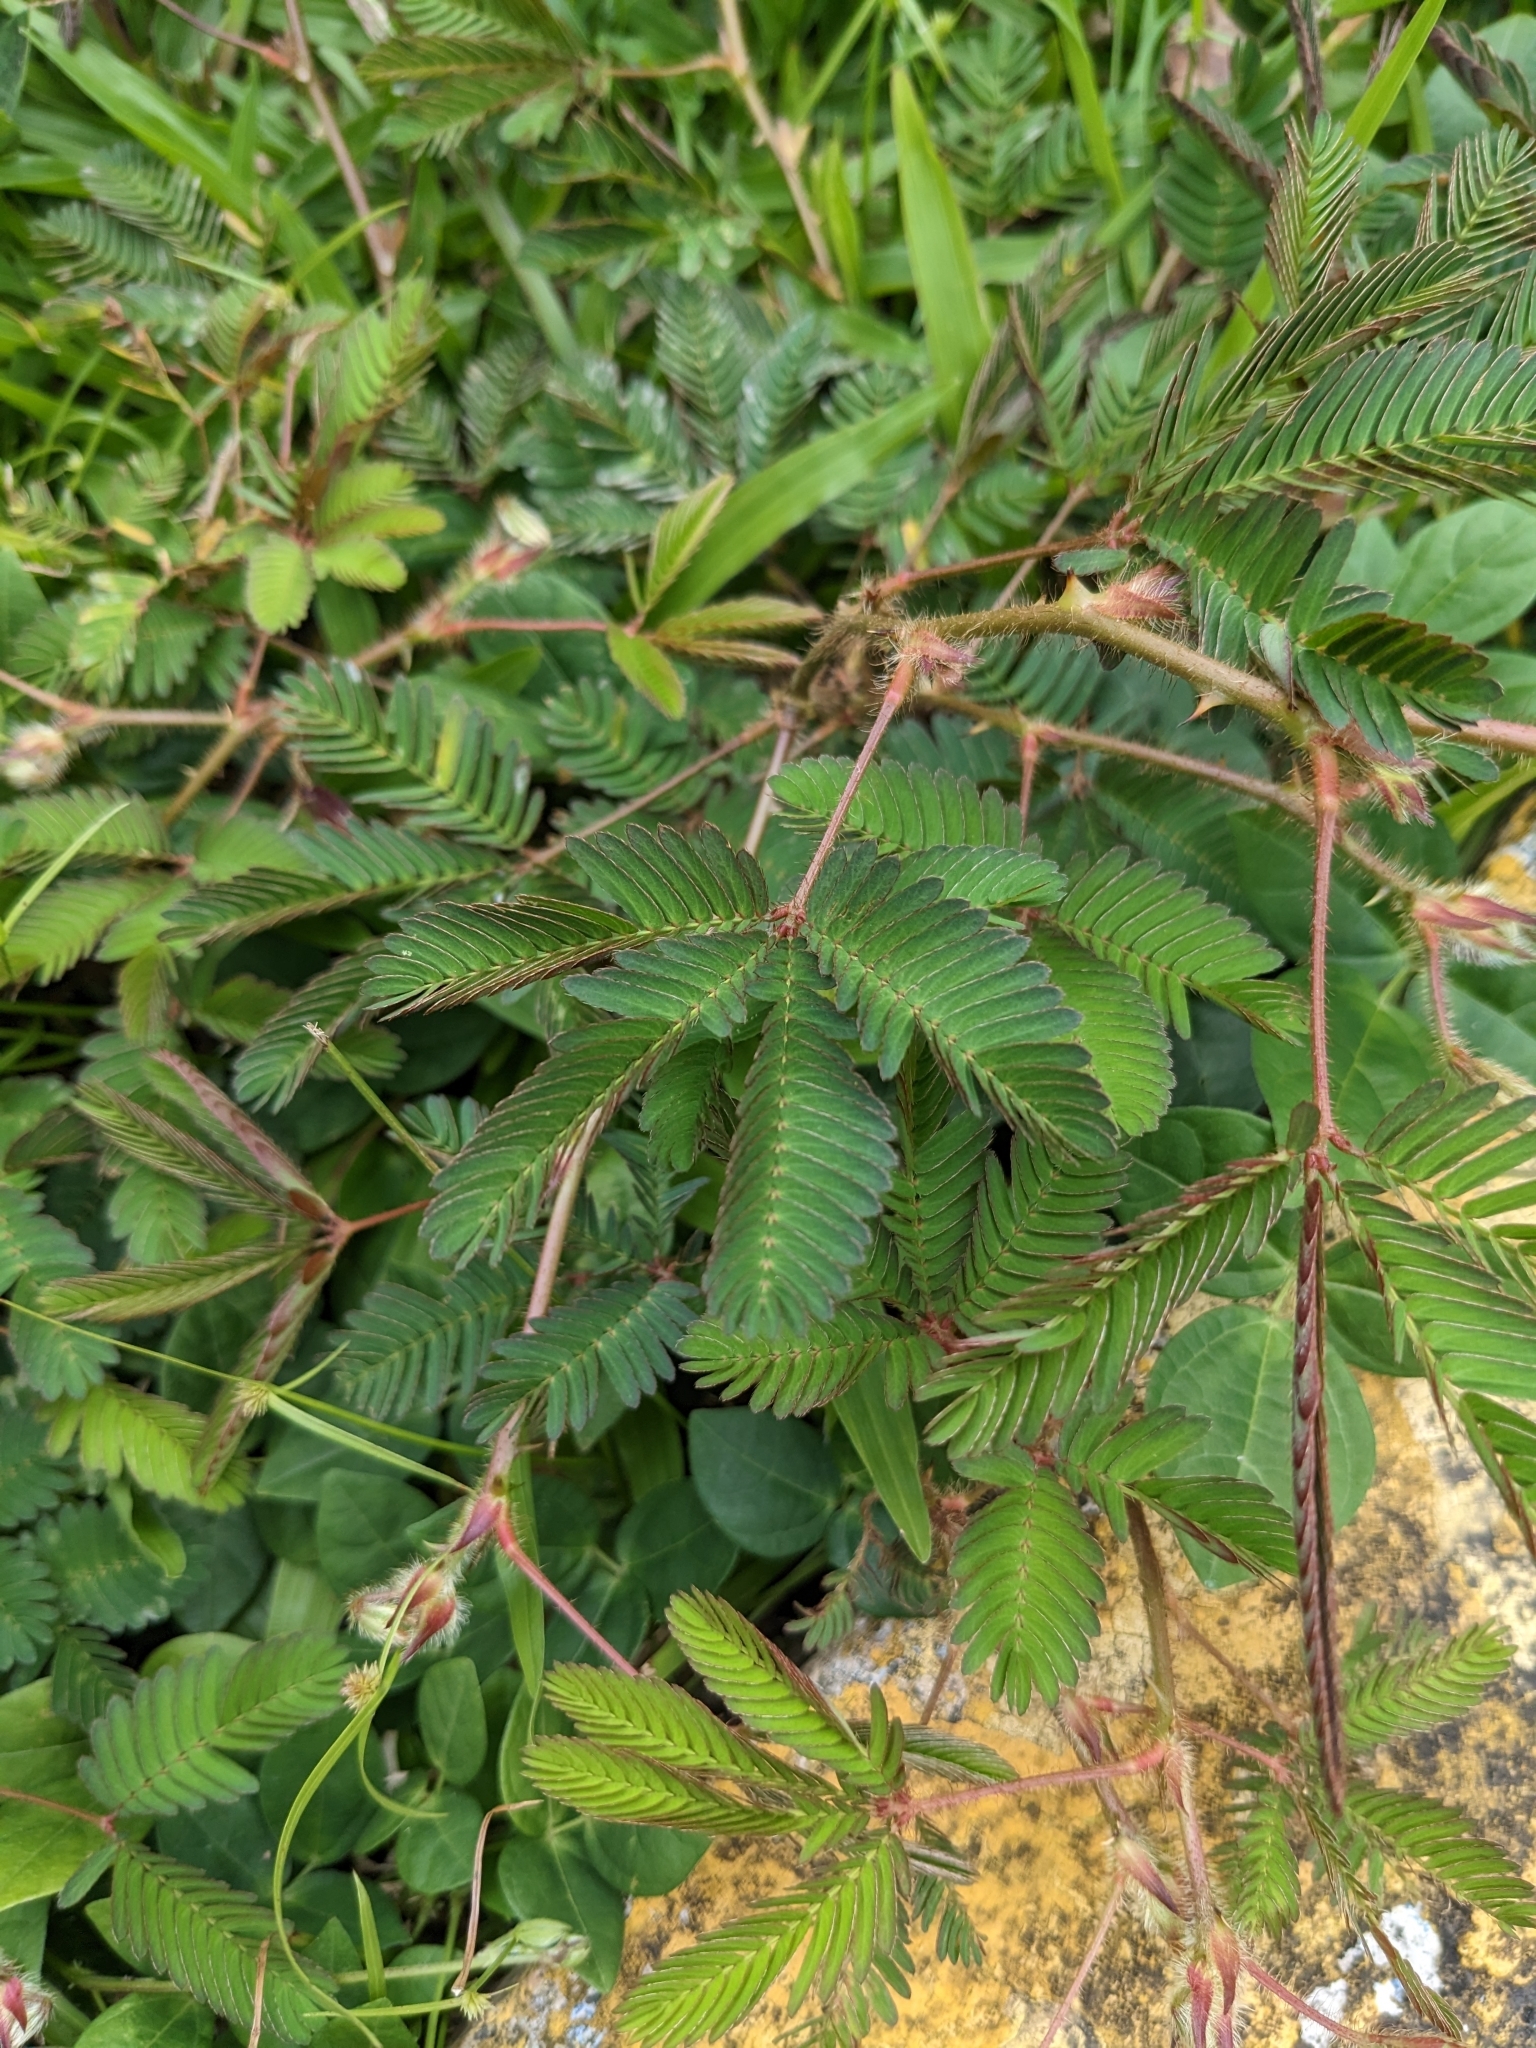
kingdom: Plantae
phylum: Tracheophyta
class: Magnoliopsida
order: Fabales
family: Fabaceae
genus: Mimosa
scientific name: Mimosa pudica
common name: Sensitive plant
